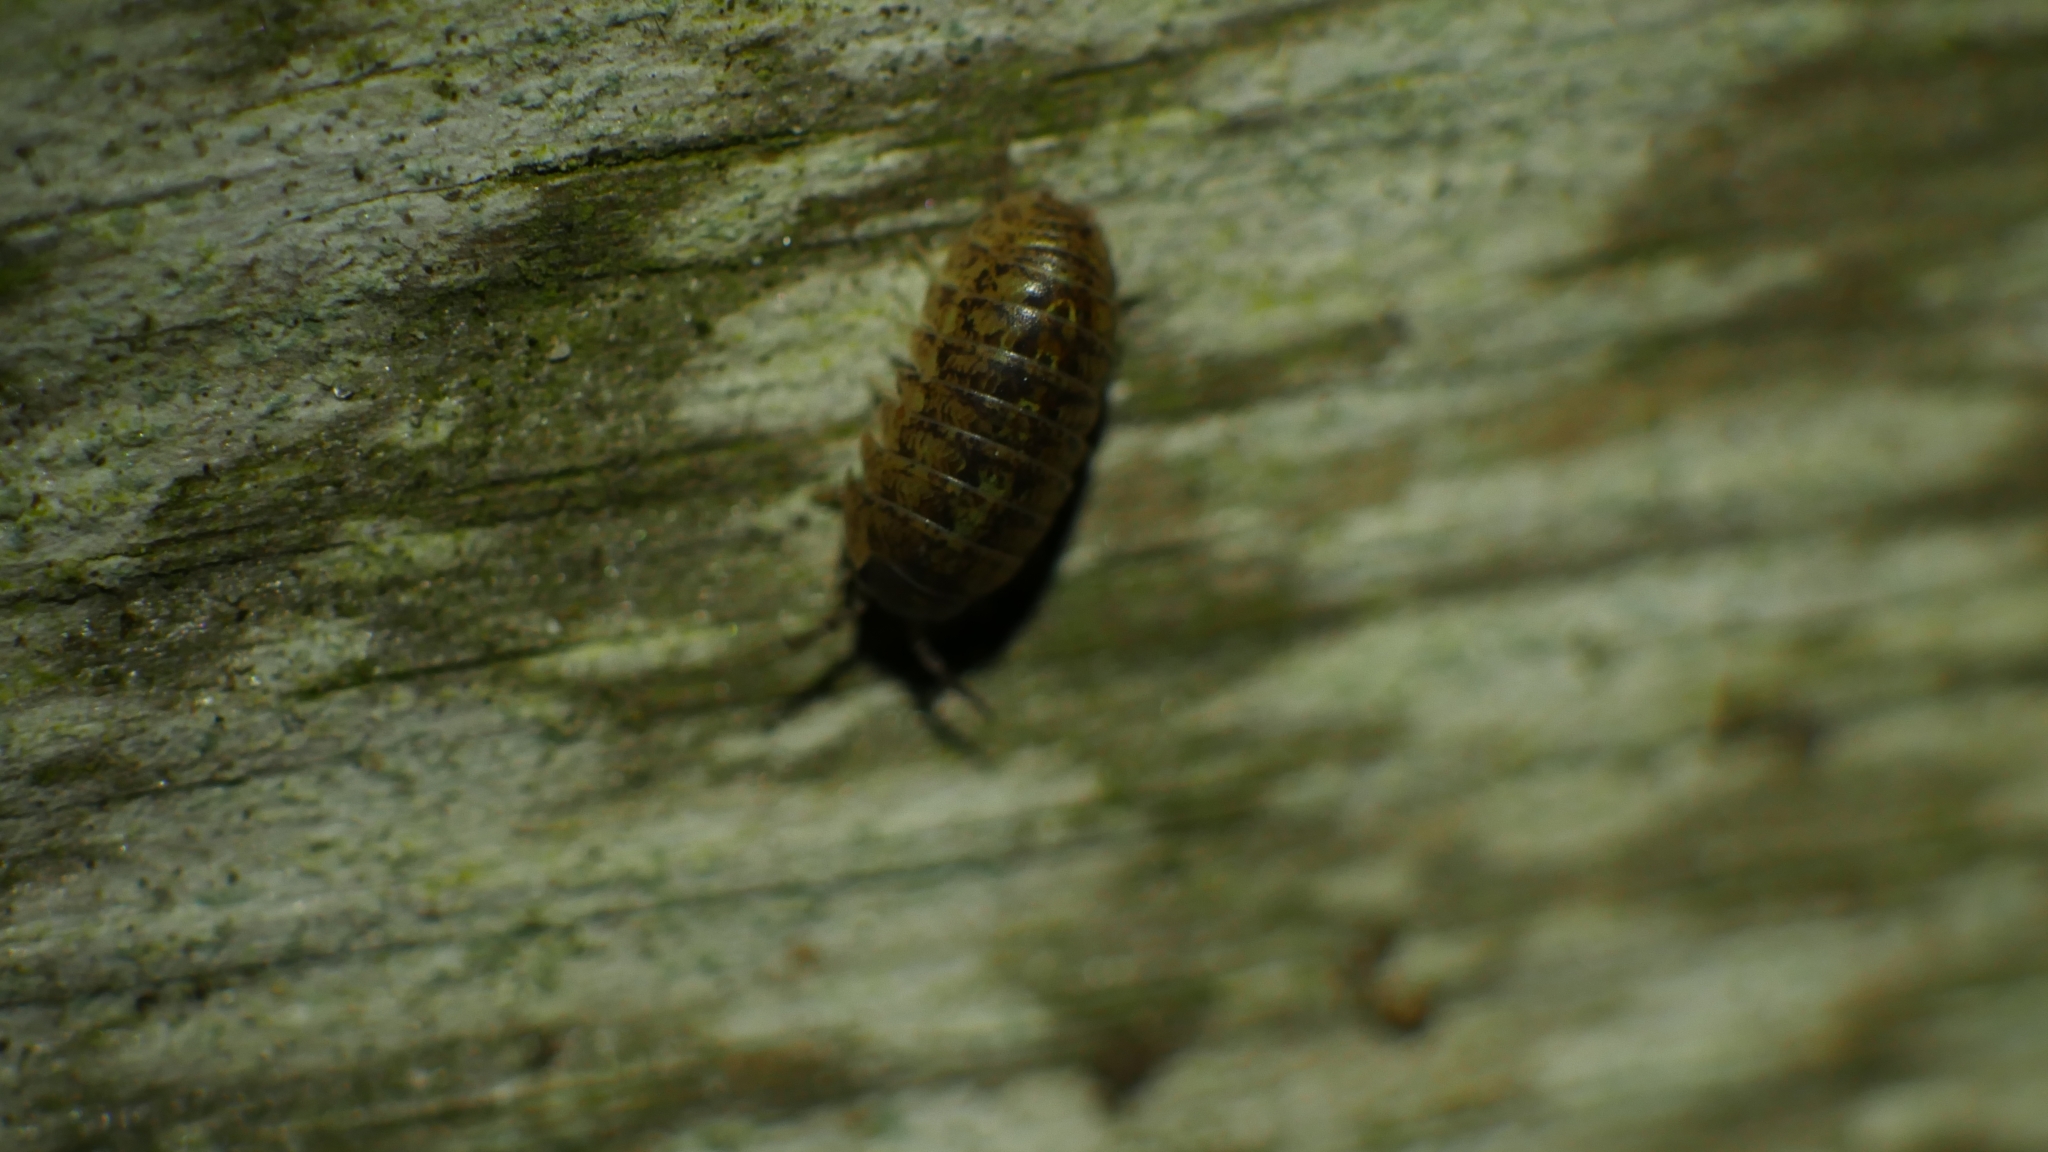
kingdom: Animalia
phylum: Arthropoda
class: Malacostraca
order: Isopoda
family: Armadillidiidae
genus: Armadillidium
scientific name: Armadillidium vulgare
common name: Common pill woodlouse
